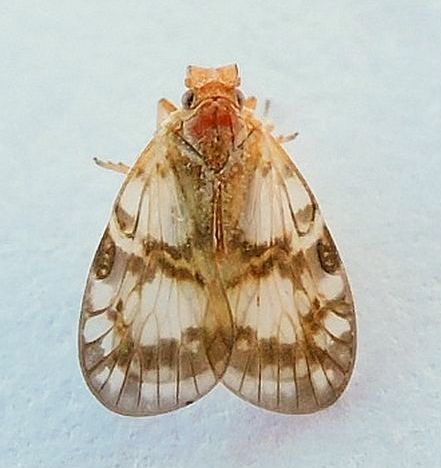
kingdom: Animalia
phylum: Arthropoda
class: Insecta
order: Hemiptera
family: Cixiidae
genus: Bothriocera
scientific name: Bothriocera drakei
